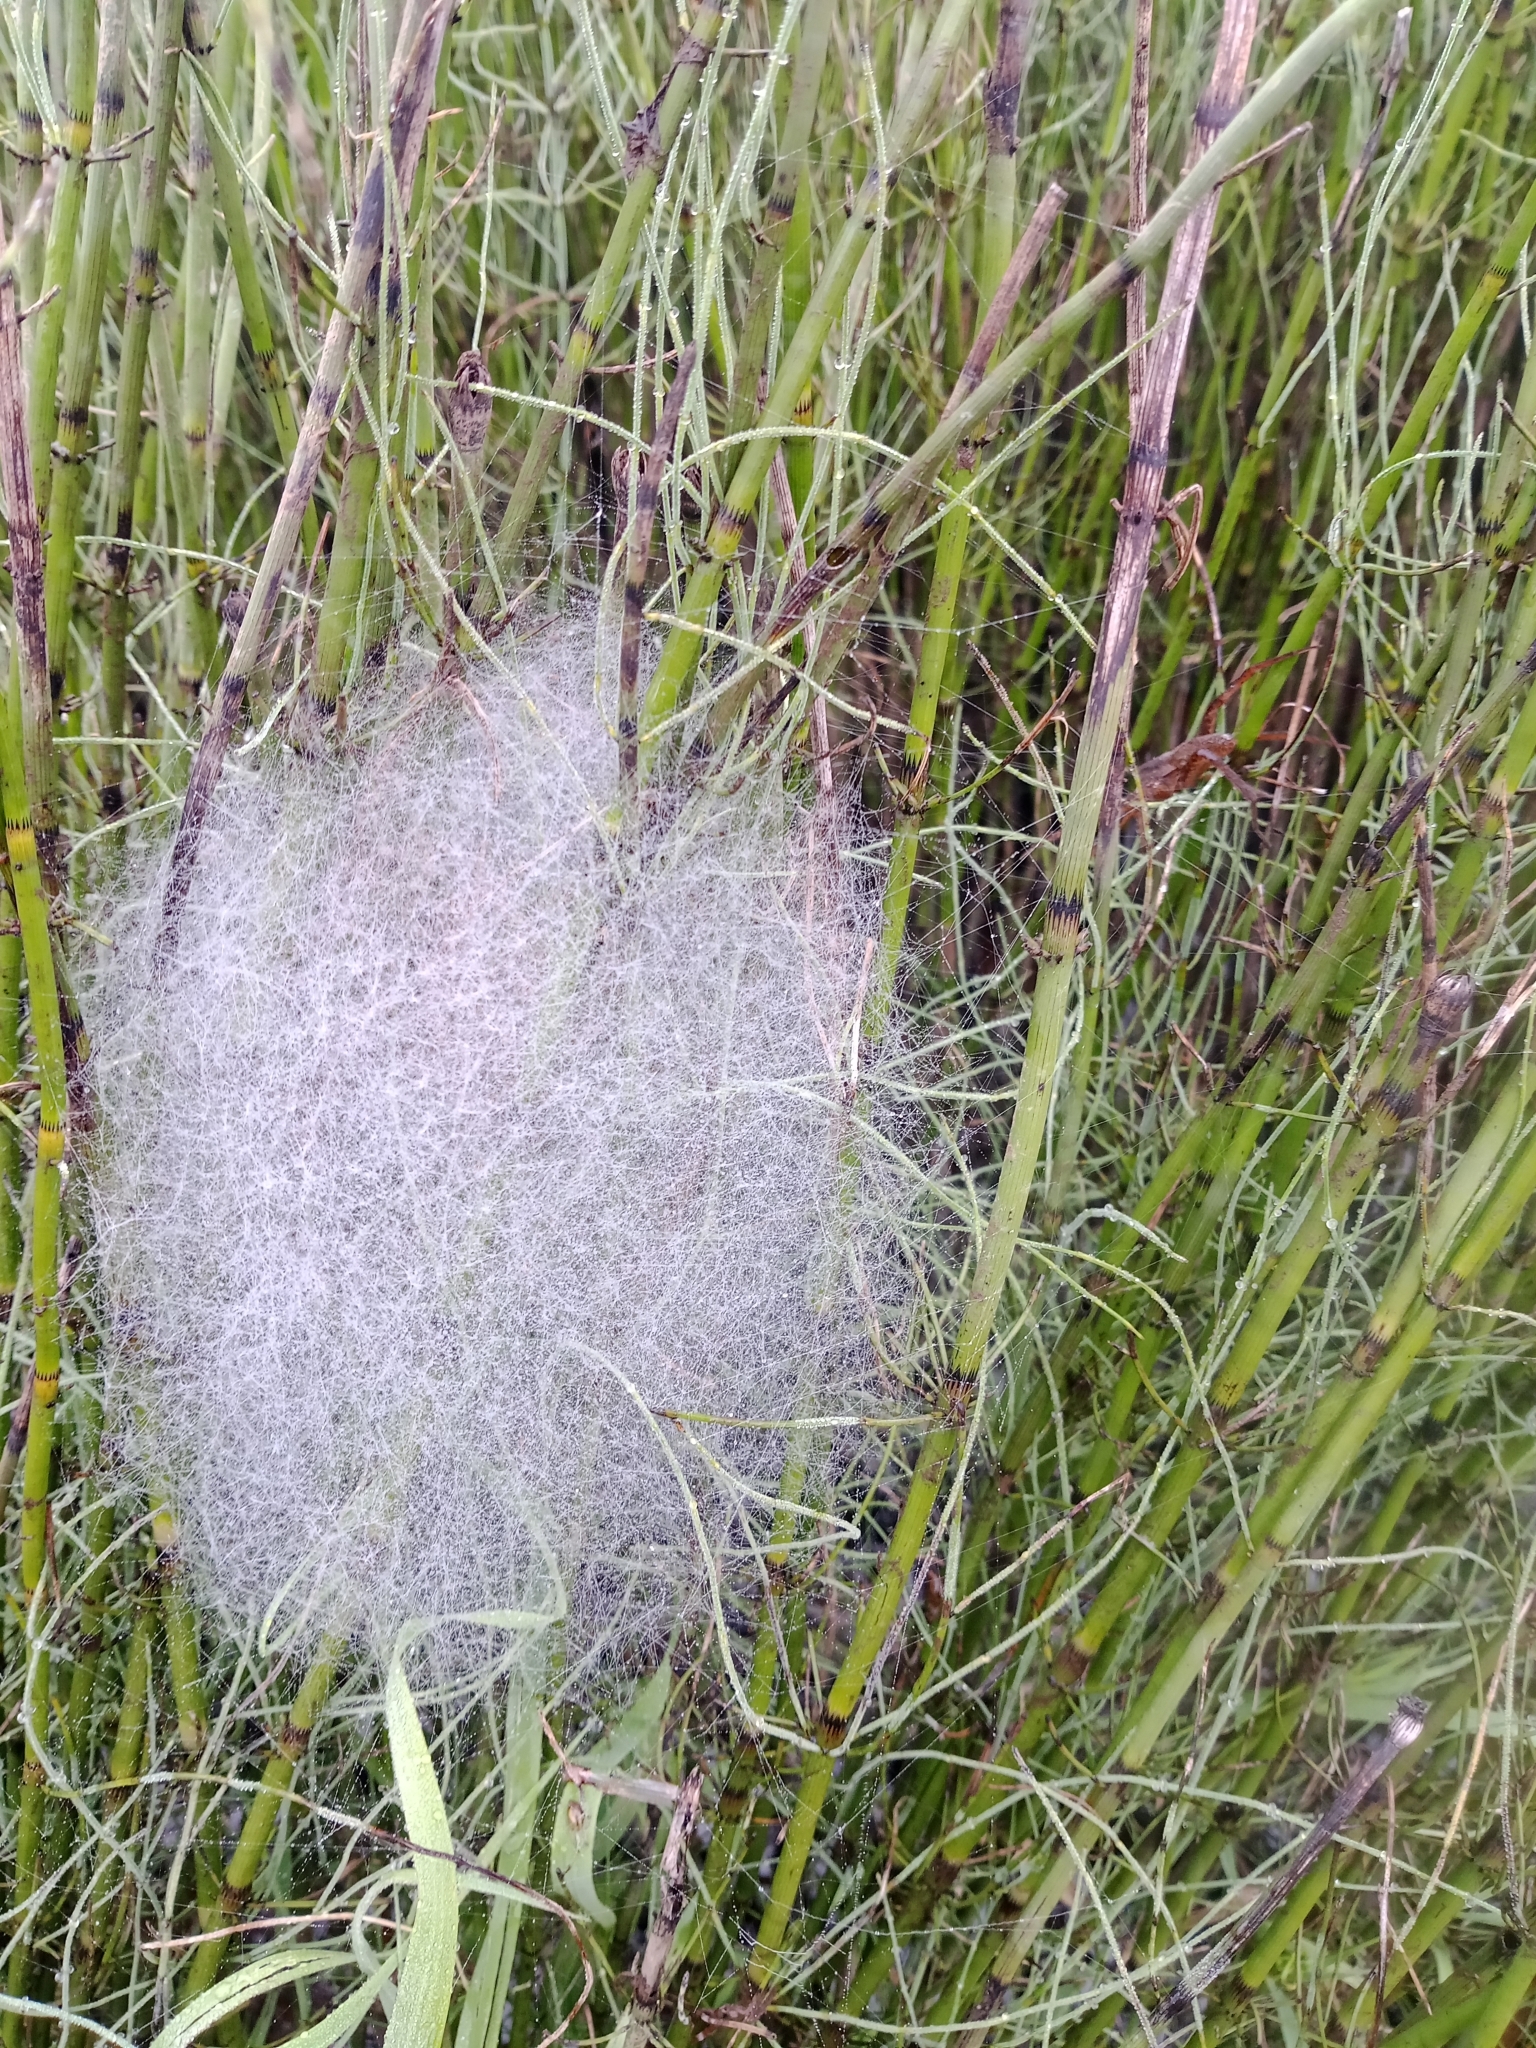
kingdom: Animalia
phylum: Arthropoda
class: Arachnida
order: Araneae
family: Pisauridae
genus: Dolomedes
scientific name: Dolomedes
